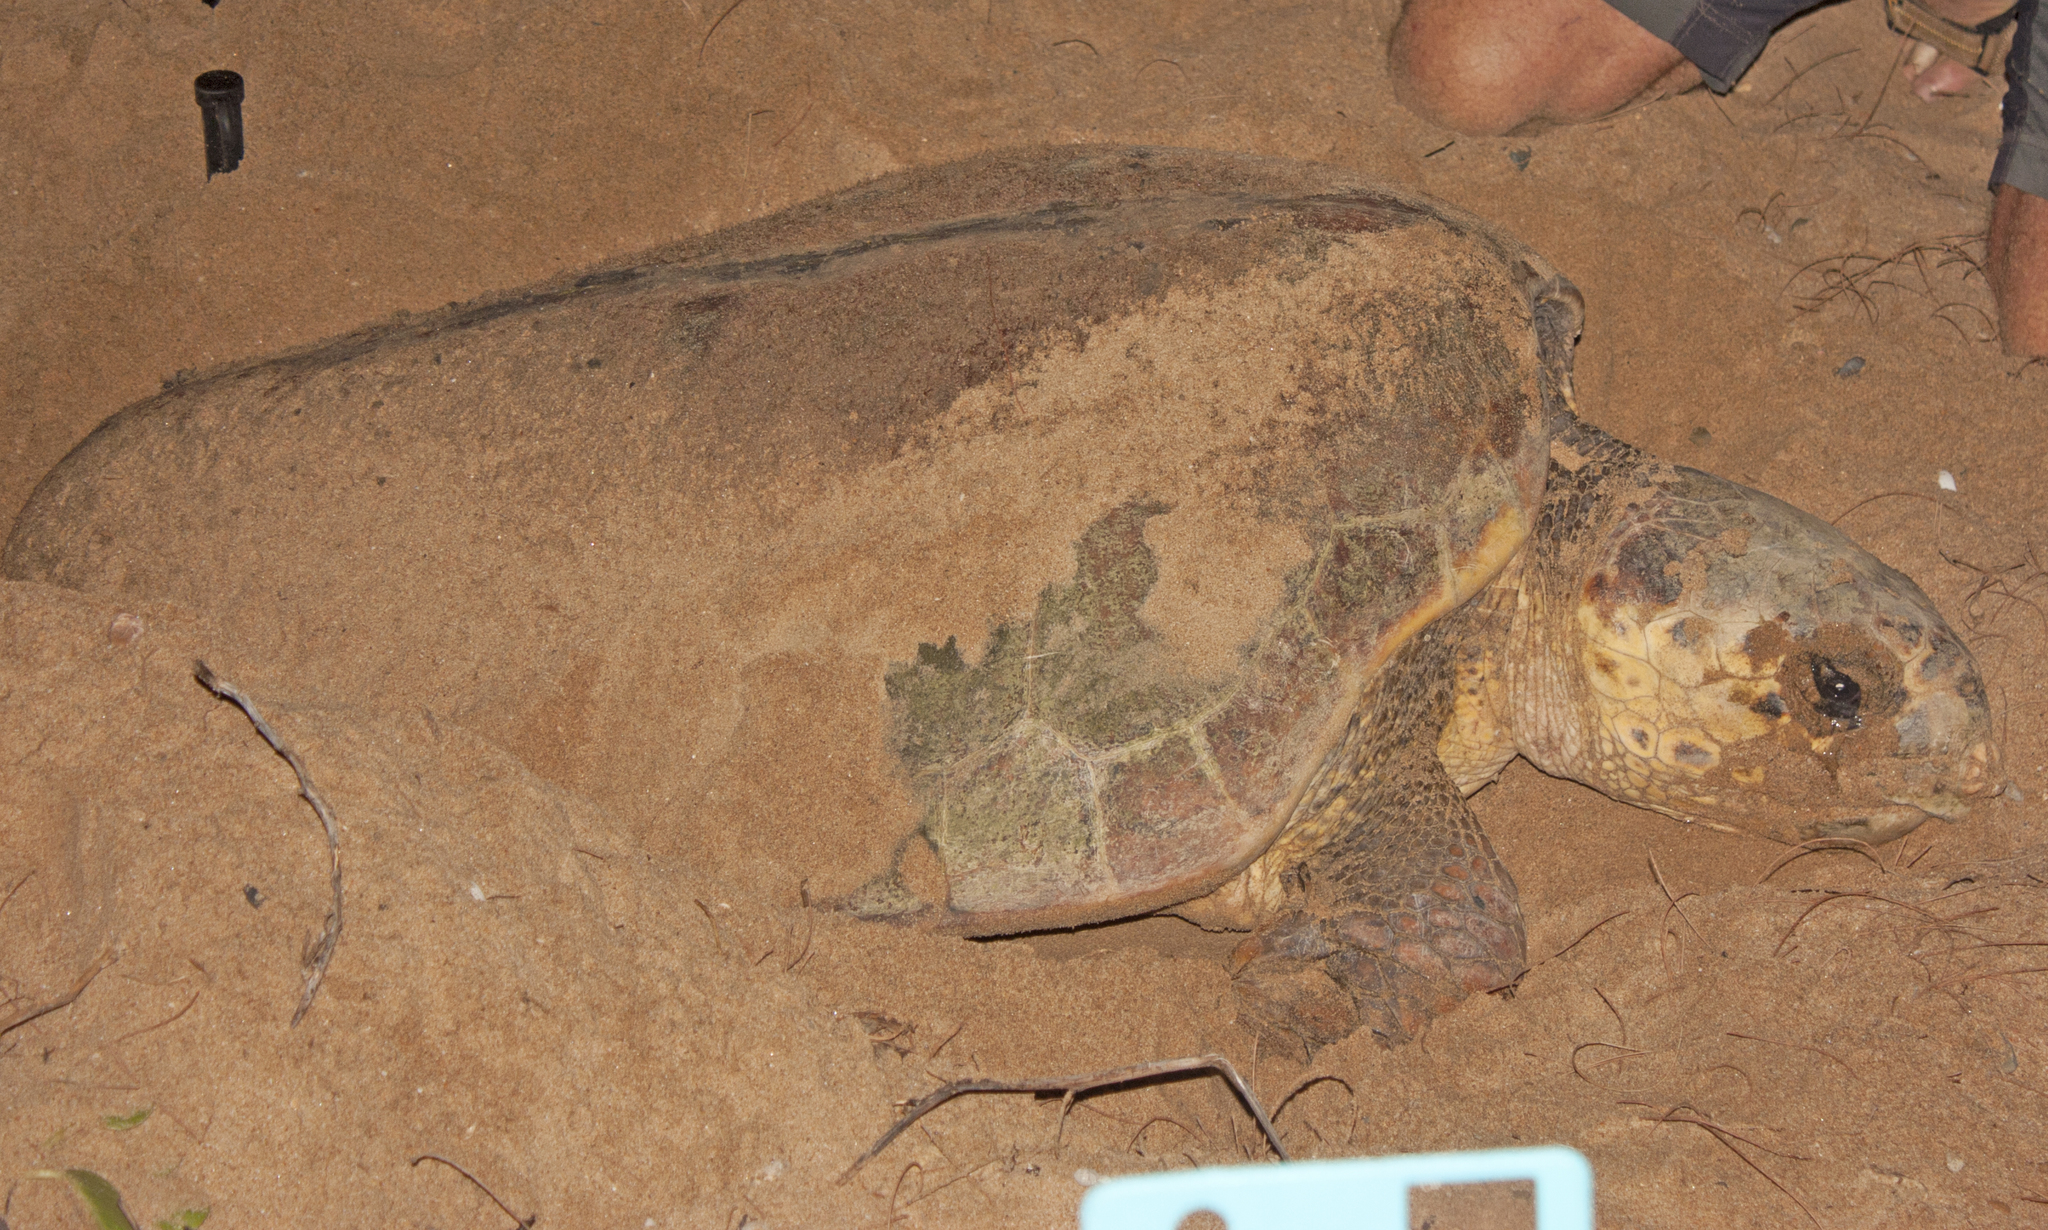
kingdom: Animalia
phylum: Chordata
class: Testudines
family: Cheloniidae
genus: Caretta
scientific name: Caretta caretta
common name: Loggerhead sea turtle
